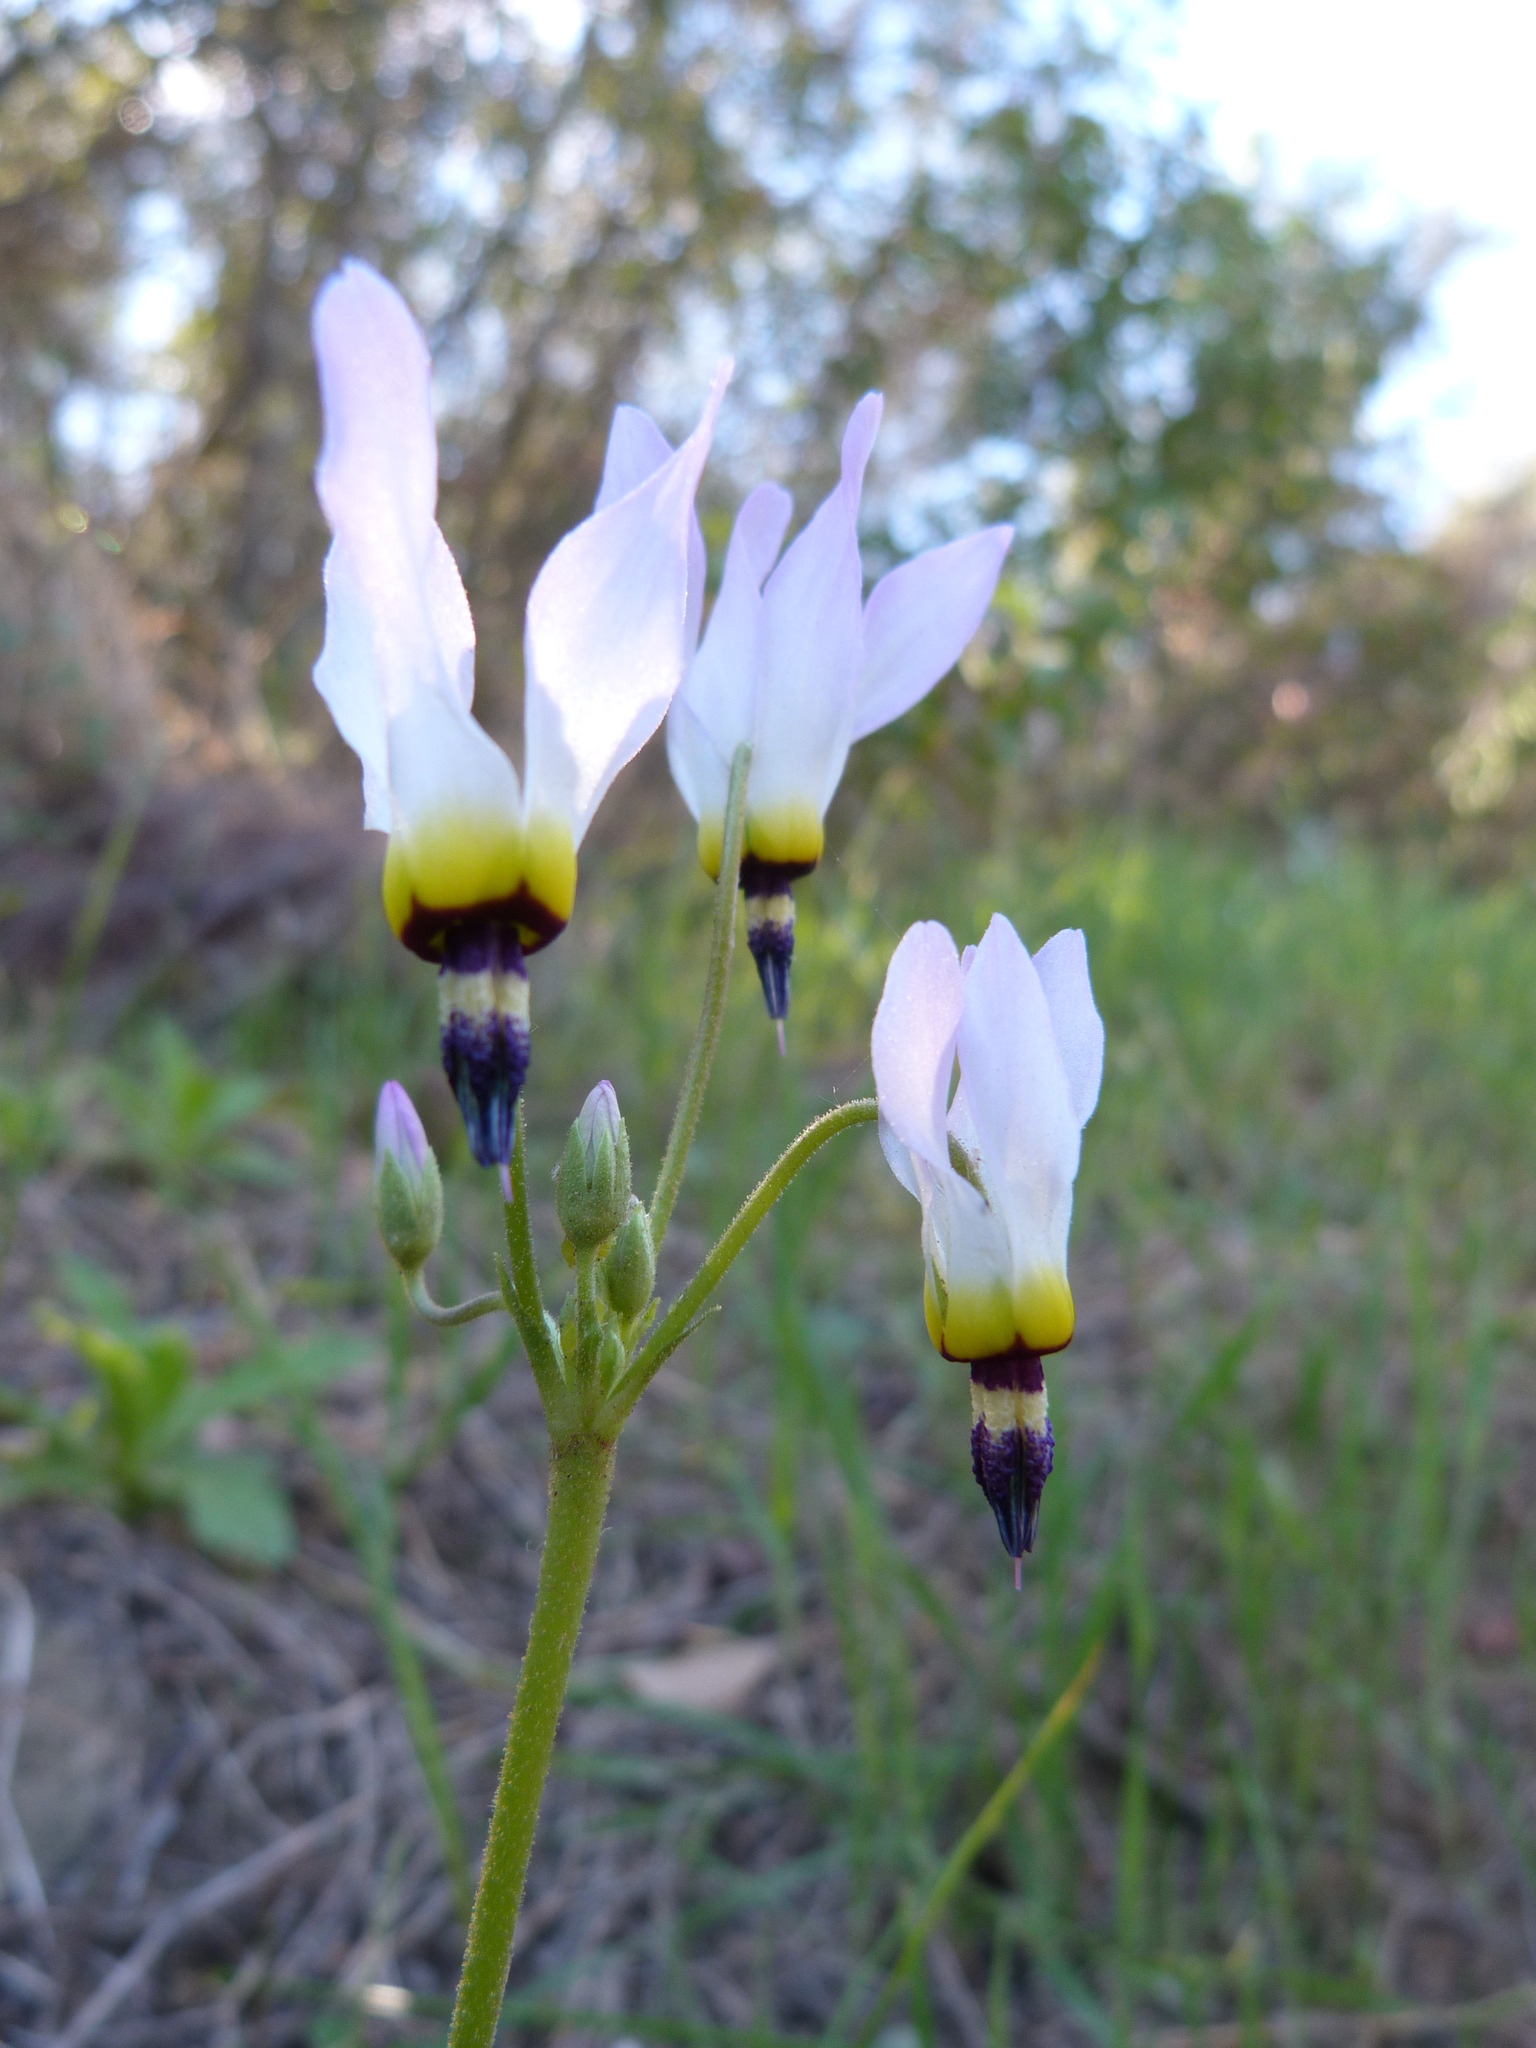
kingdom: Plantae
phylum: Tracheophyta
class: Magnoliopsida
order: Ericales
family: Primulaceae
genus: Dodecatheon
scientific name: Dodecatheon clevelandii
